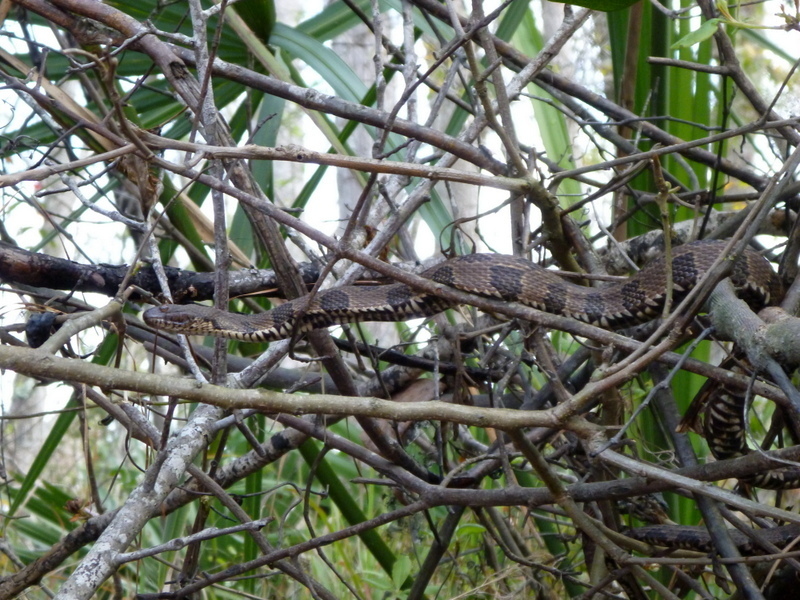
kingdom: Animalia
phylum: Chordata
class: Squamata
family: Colubridae
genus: Nerodia
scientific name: Nerodia taxispilota
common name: Brown water snake
